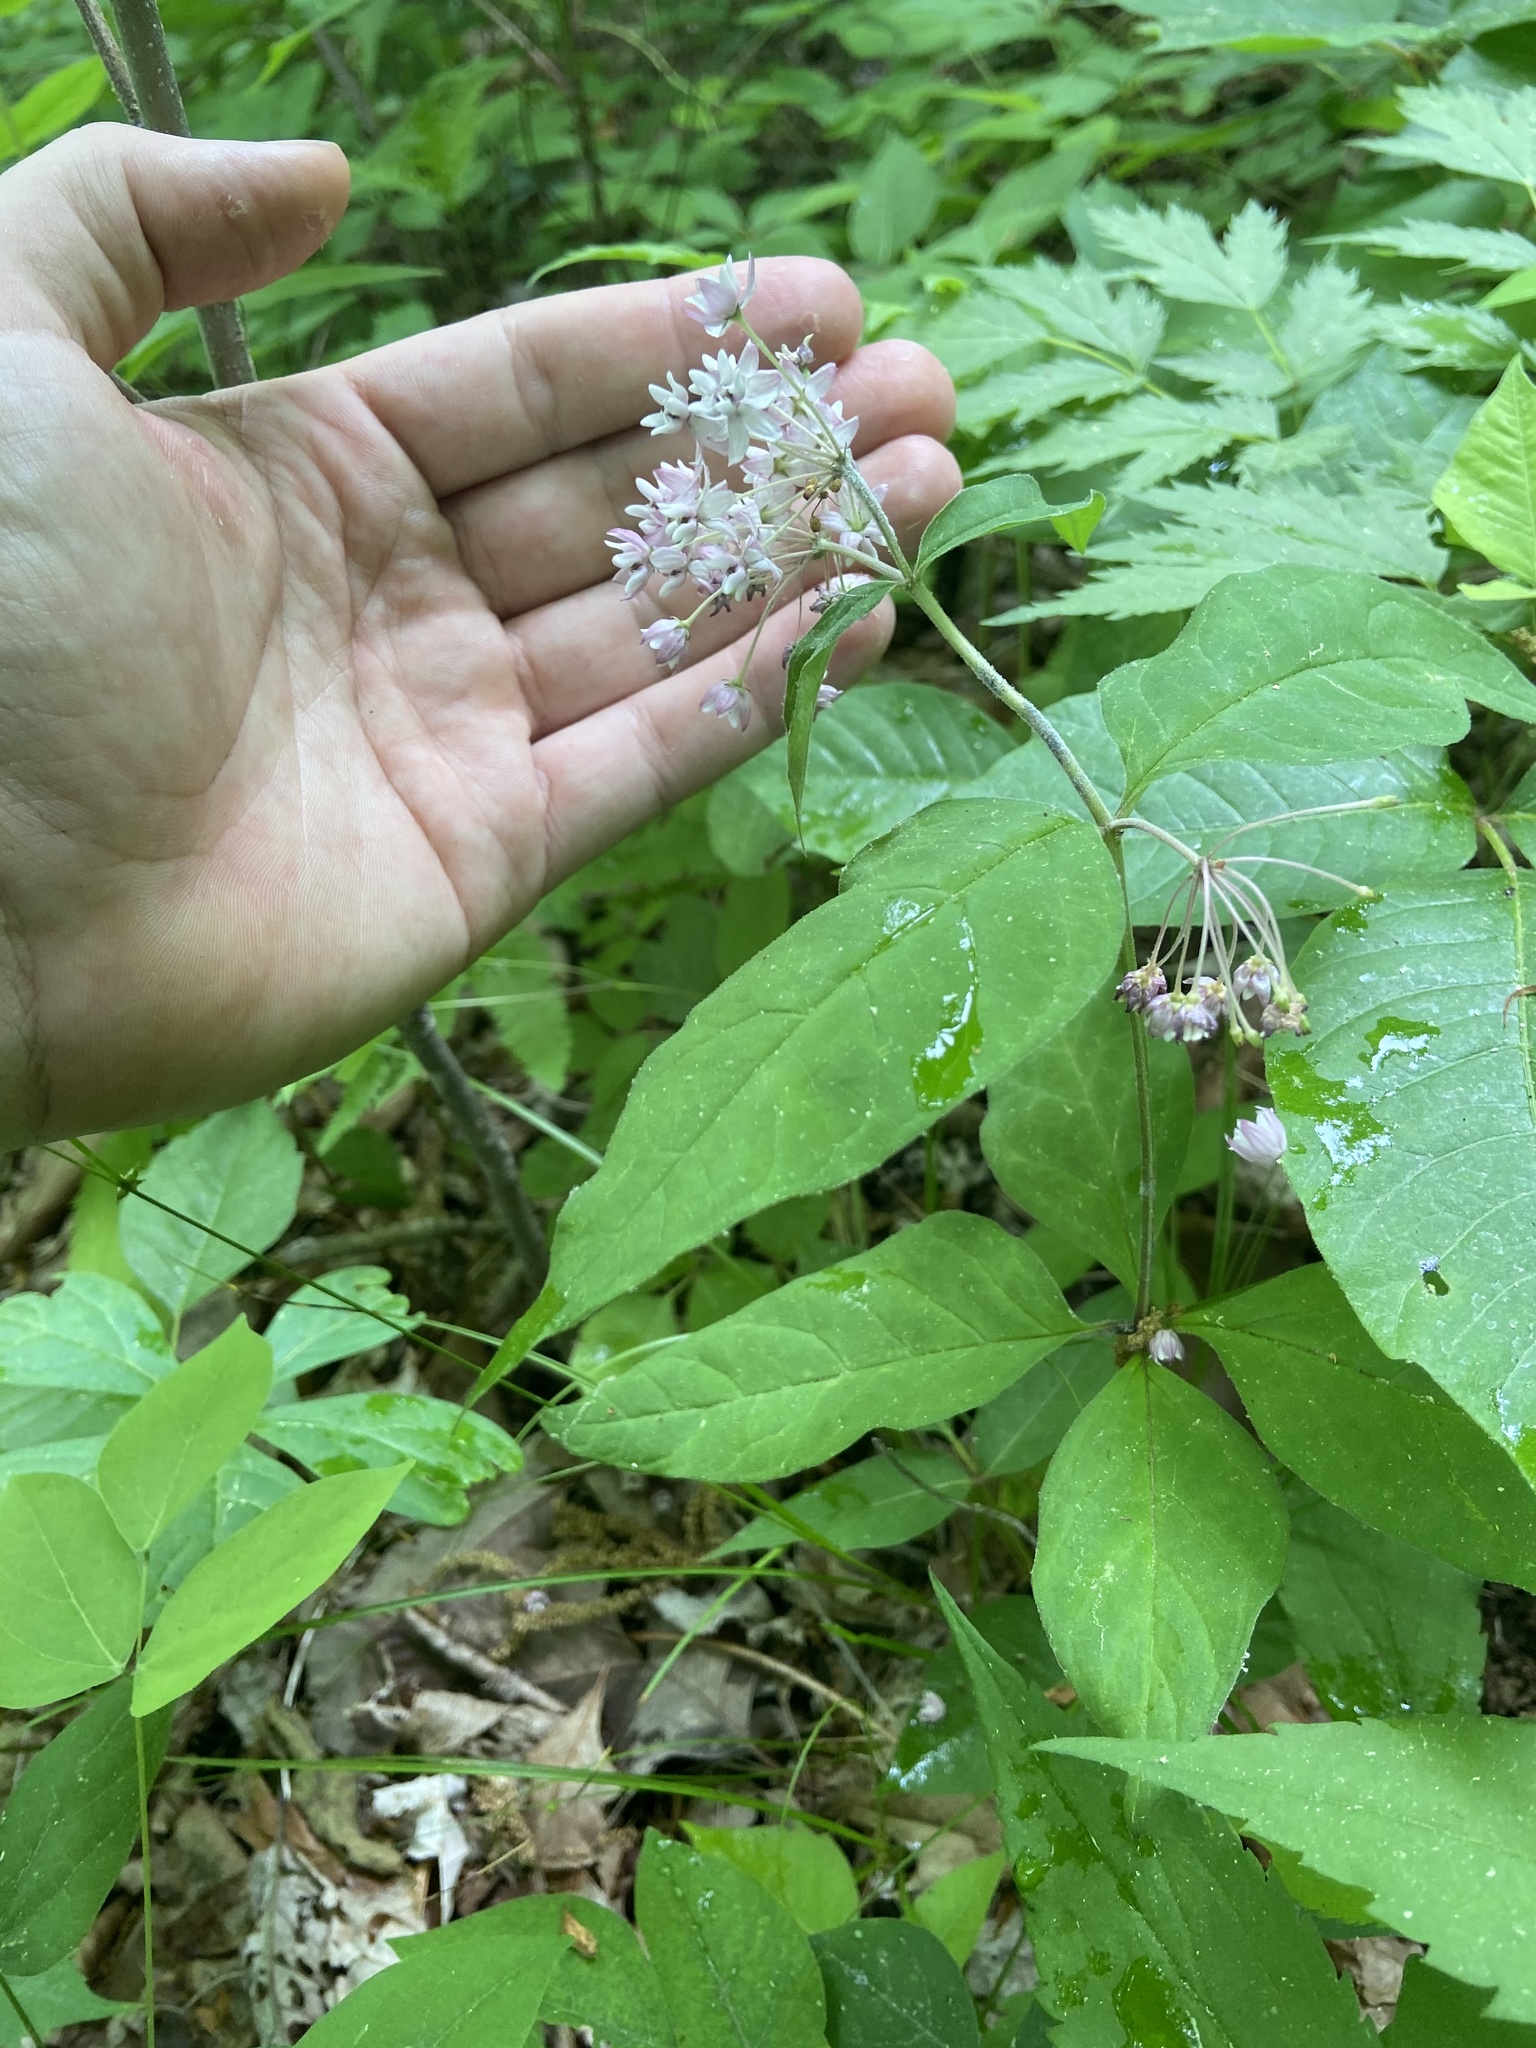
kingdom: Plantae
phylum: Tracheophyta
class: Magnoliopsida
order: Gentianales
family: Apocynaceae
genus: Asclepias
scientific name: Asclepias quadrifolia
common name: Whorled milkweed
